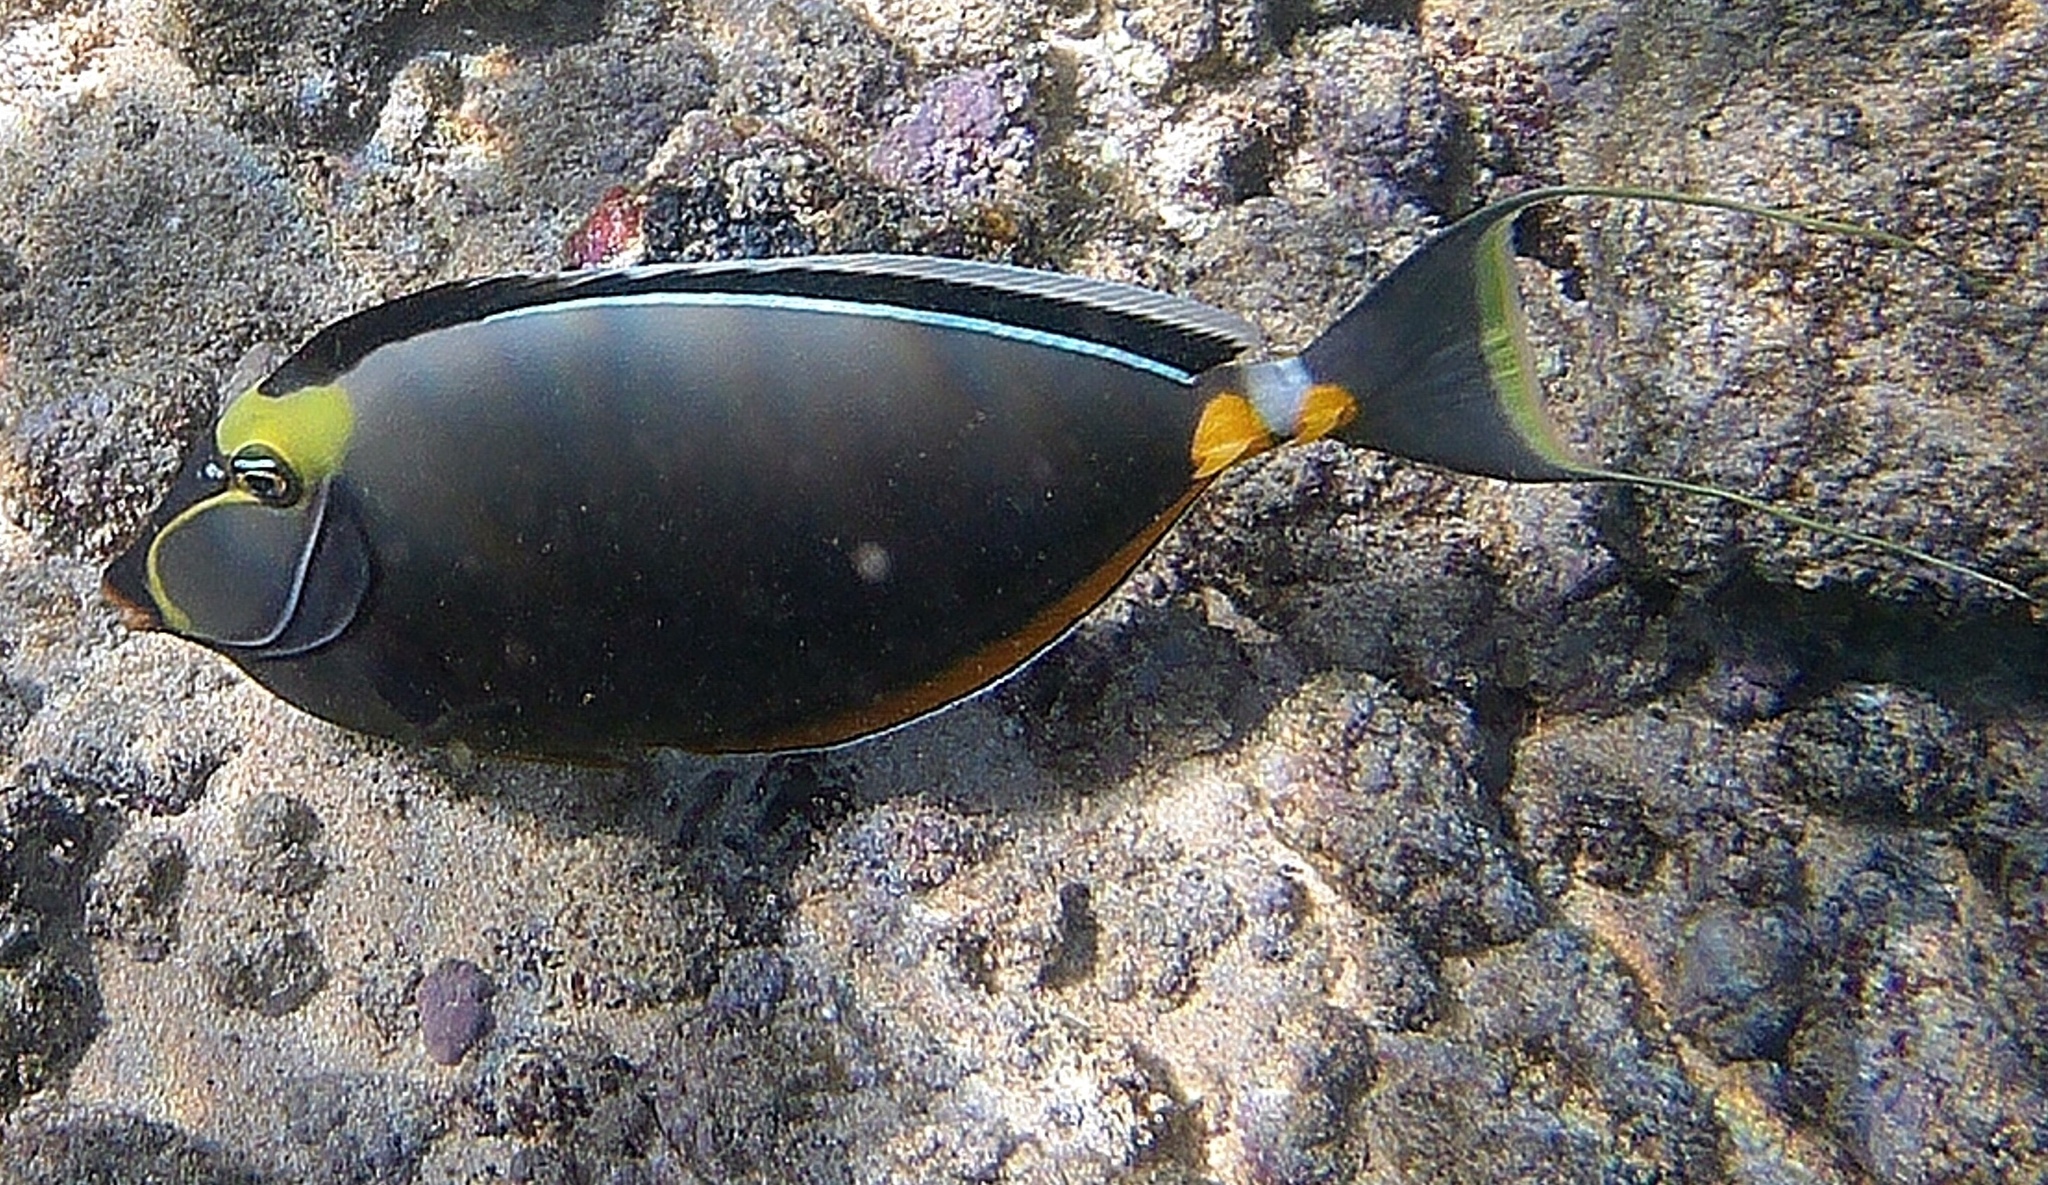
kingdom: Animalia
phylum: Chordata
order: Perciformes
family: Acanthuridae
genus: Naso
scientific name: Naso lituratus
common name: Orangespine unicornfish
